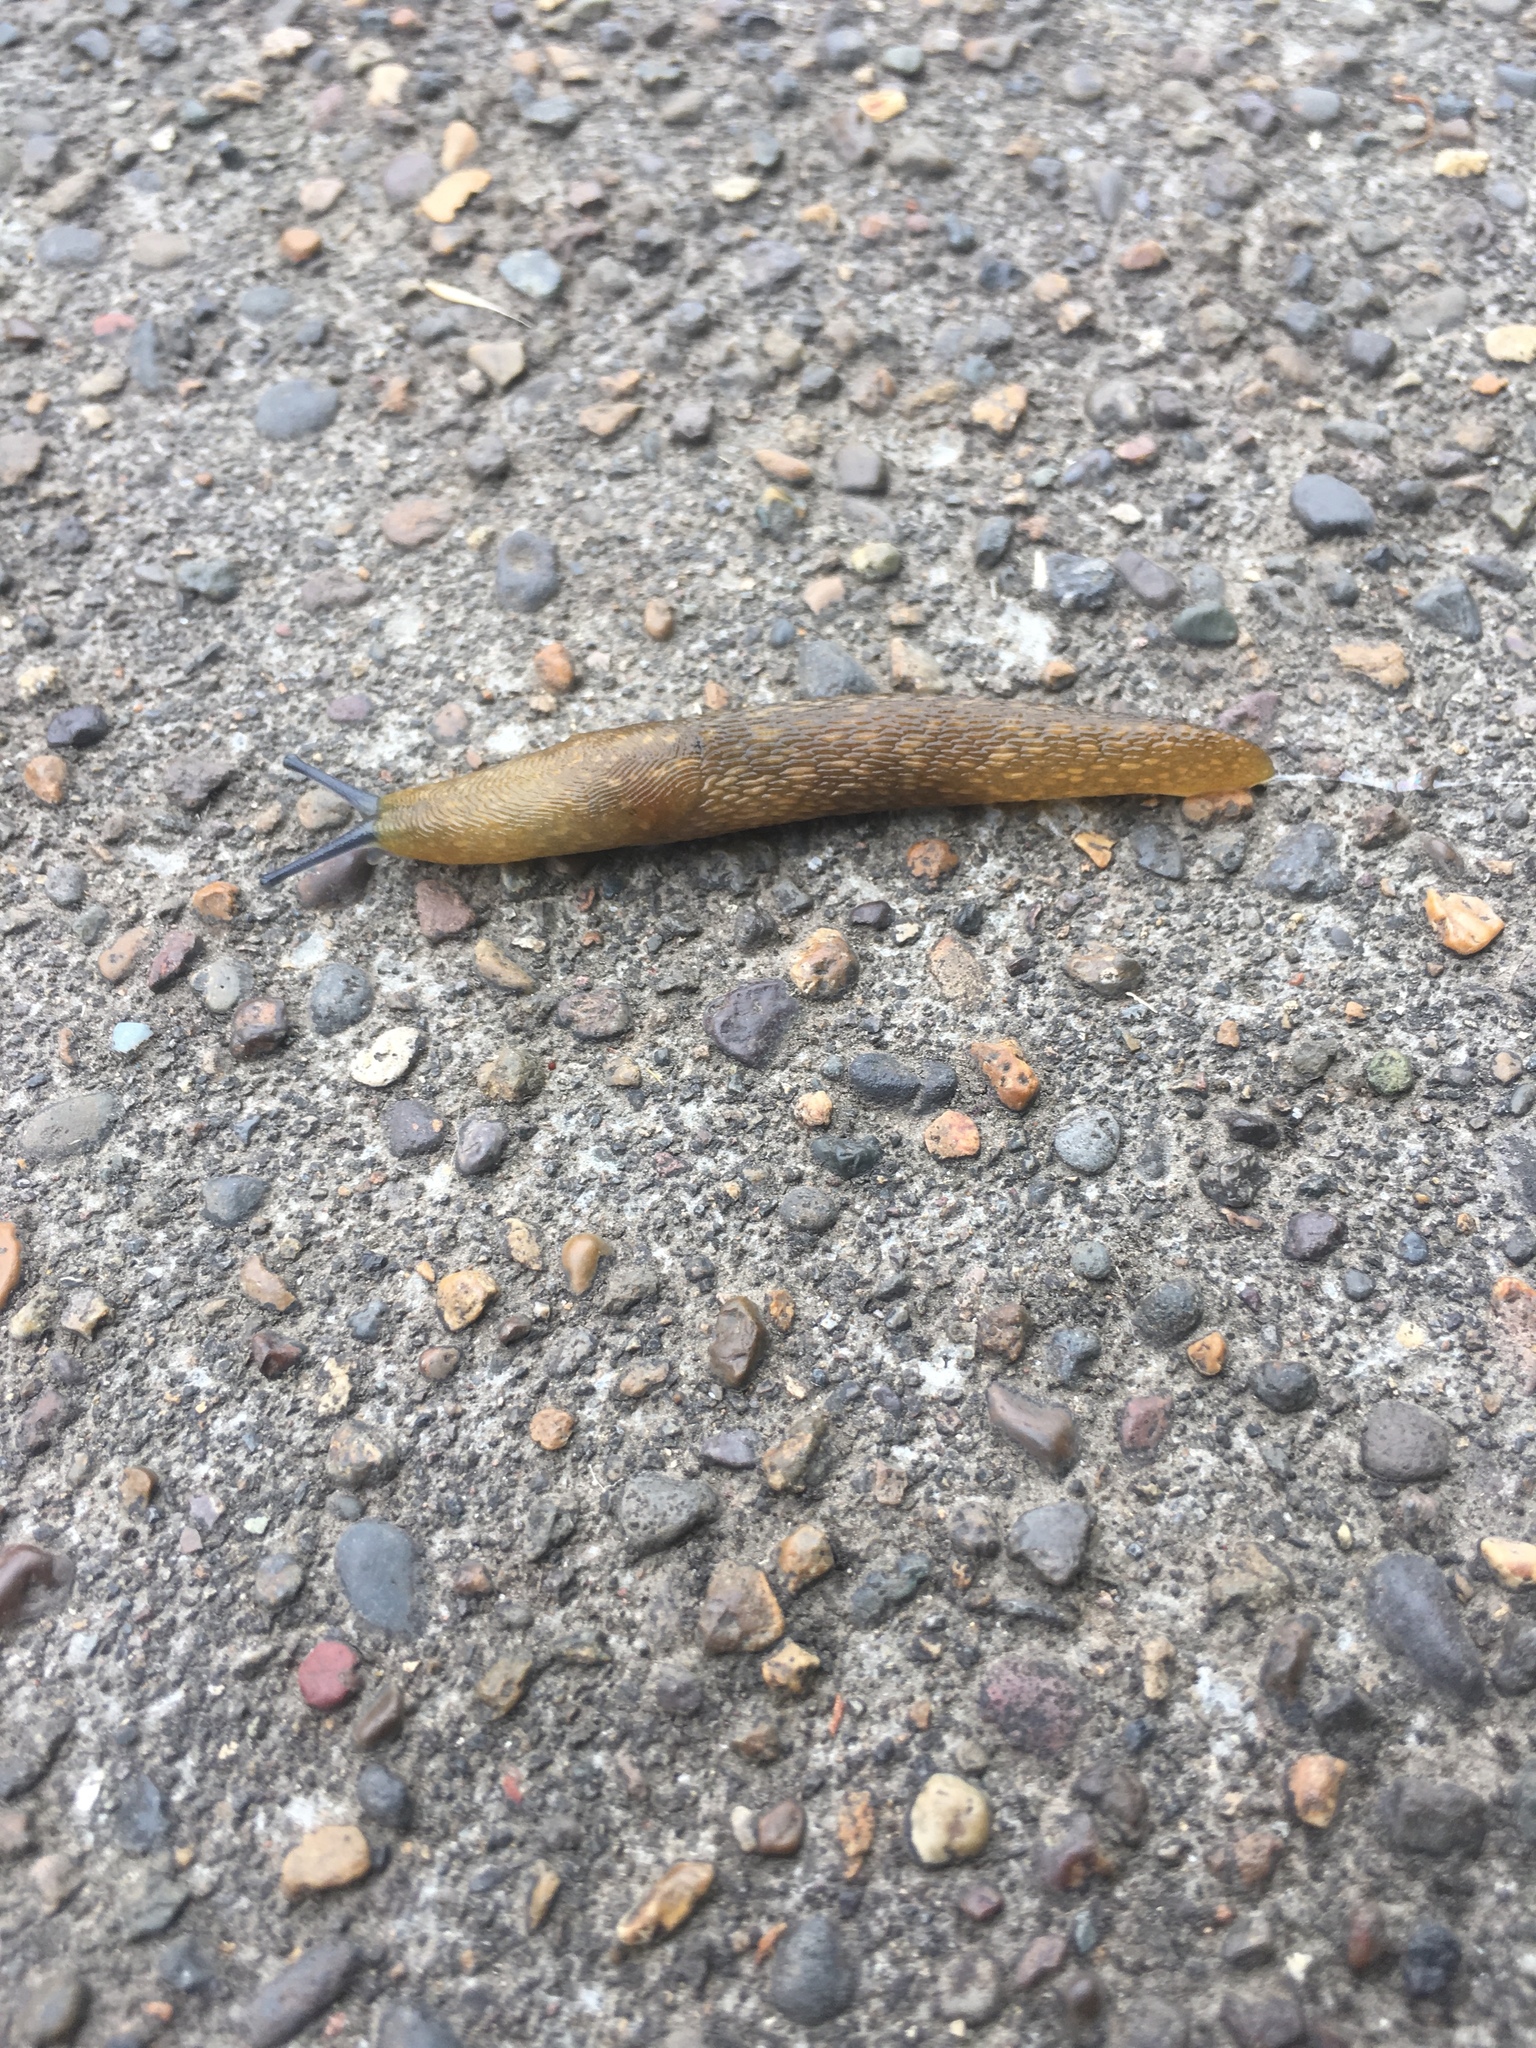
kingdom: Animalia
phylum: Mollusca
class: Gastropoda
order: Stylommatophora
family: Limacidae
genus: Limacus
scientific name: Limacus flavus
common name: Yellow gardenslug
